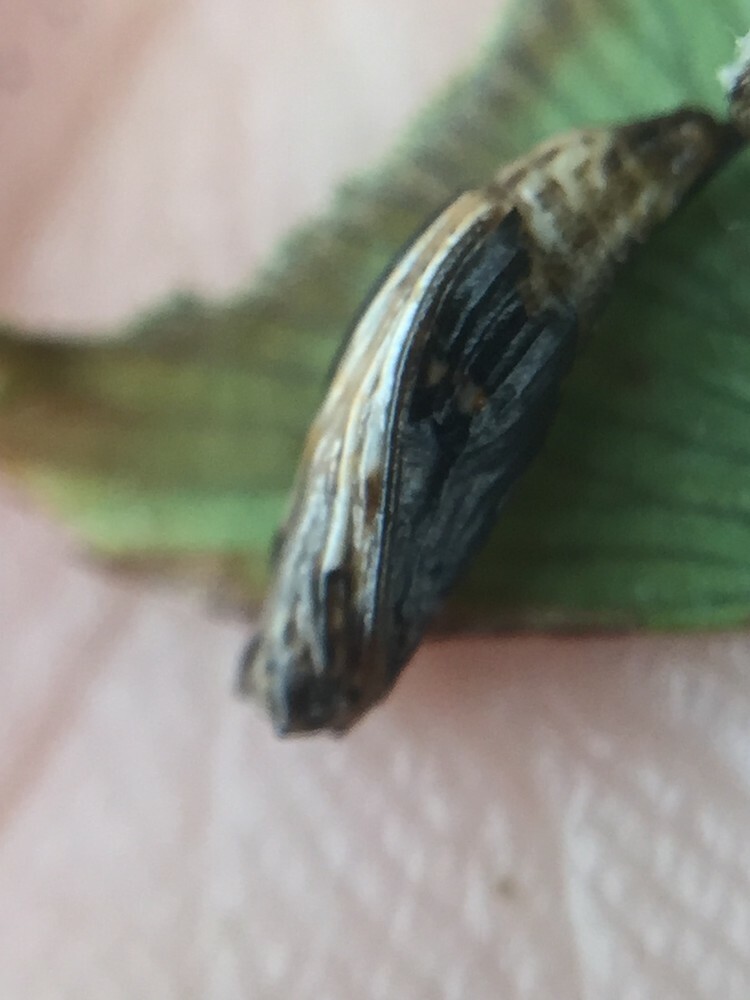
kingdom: Animalia
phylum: Arthropoda
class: Insecta
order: Lepidoptera
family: Pyralidae
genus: Musotima
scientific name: Musotima aduncalis
